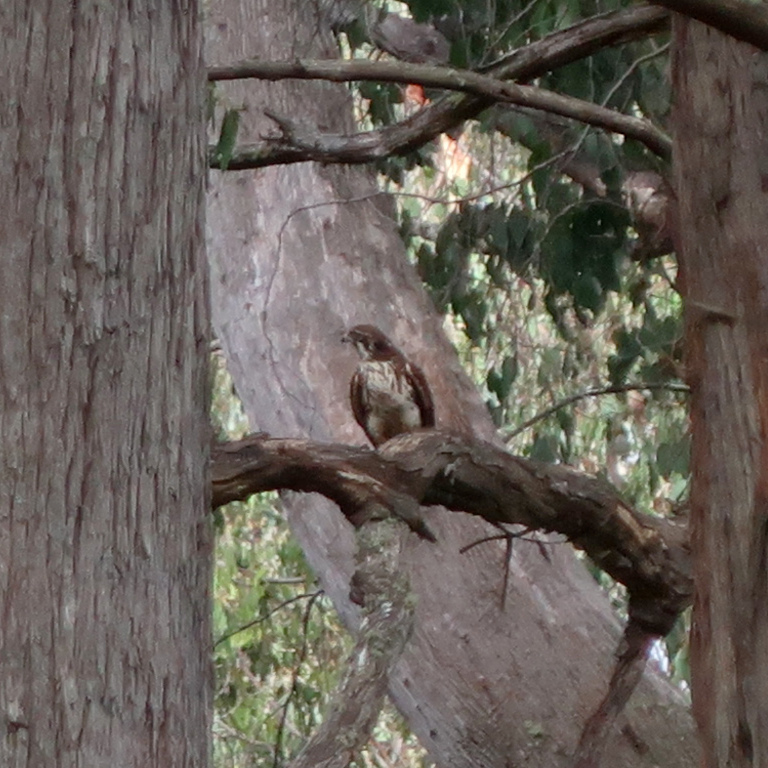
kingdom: Animalia
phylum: Chordata
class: Aves
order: Falconiformes
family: Falconidae
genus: Falco
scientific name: Falco berigora
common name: Brown falcon
